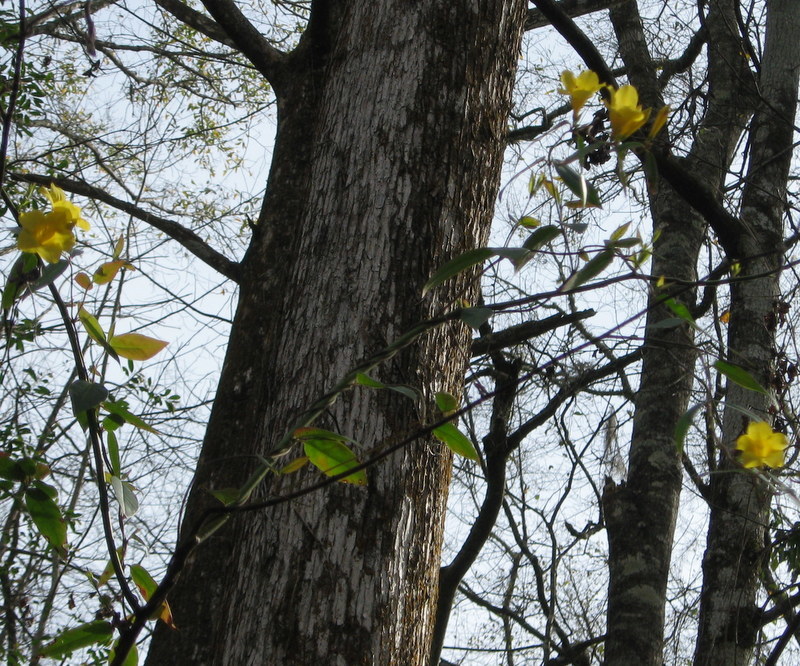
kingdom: Plantae
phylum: Tracheophyta
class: Magnoliopsida
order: Gentianales
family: Gelsemiaceae
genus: Gelsemium
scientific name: Gelsemium sempervirens
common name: Carolina-jasmine
